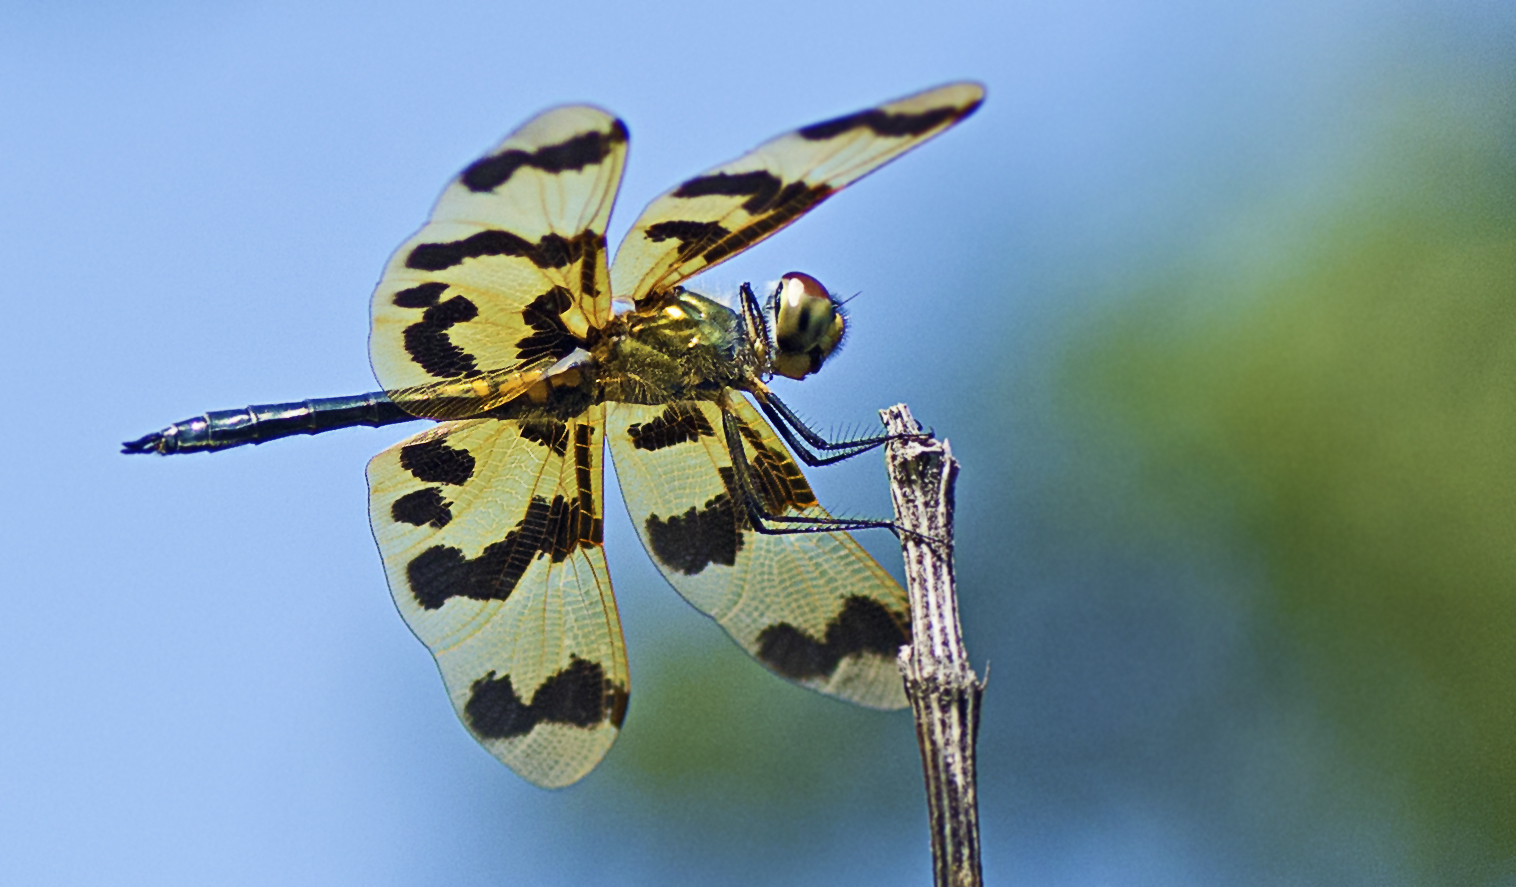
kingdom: Animalia
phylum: Arthropoda
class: Insecta
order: Odonata
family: Libellulidae
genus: Rhyothemis
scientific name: Rhyothemis graphiptera
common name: Graphic flutterer
